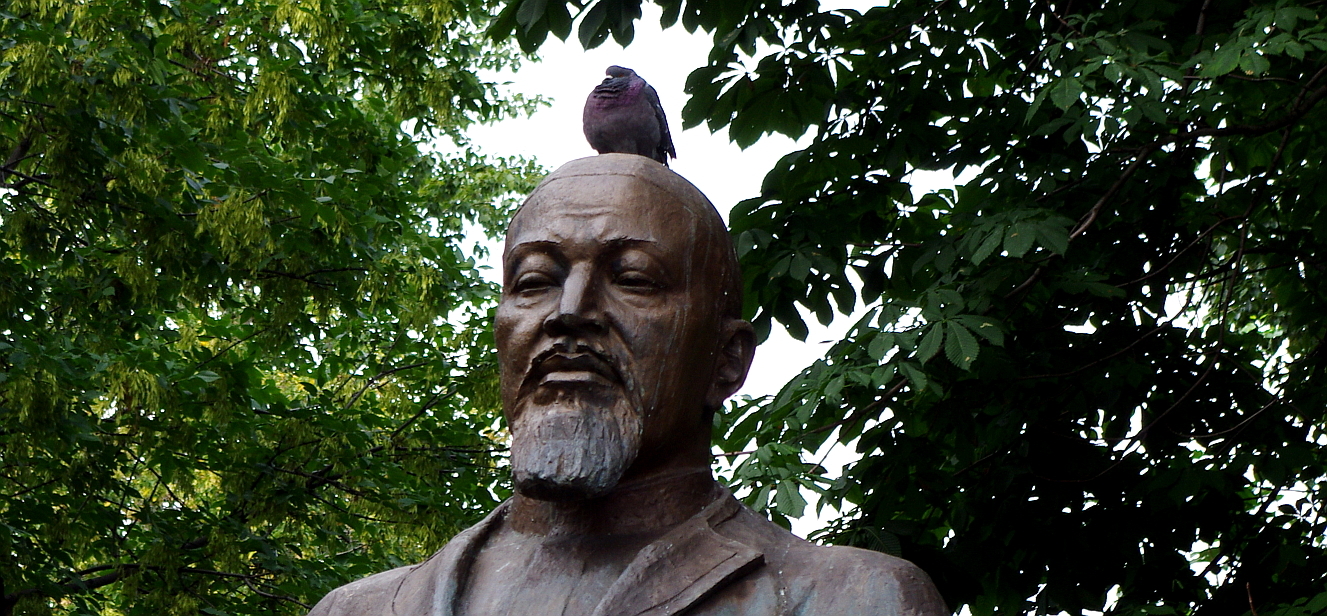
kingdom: Animalia
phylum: Chordata
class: Aves
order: Columbiformes
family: Columbidae
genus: Columba
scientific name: Columba livia
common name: Rock pigeon
